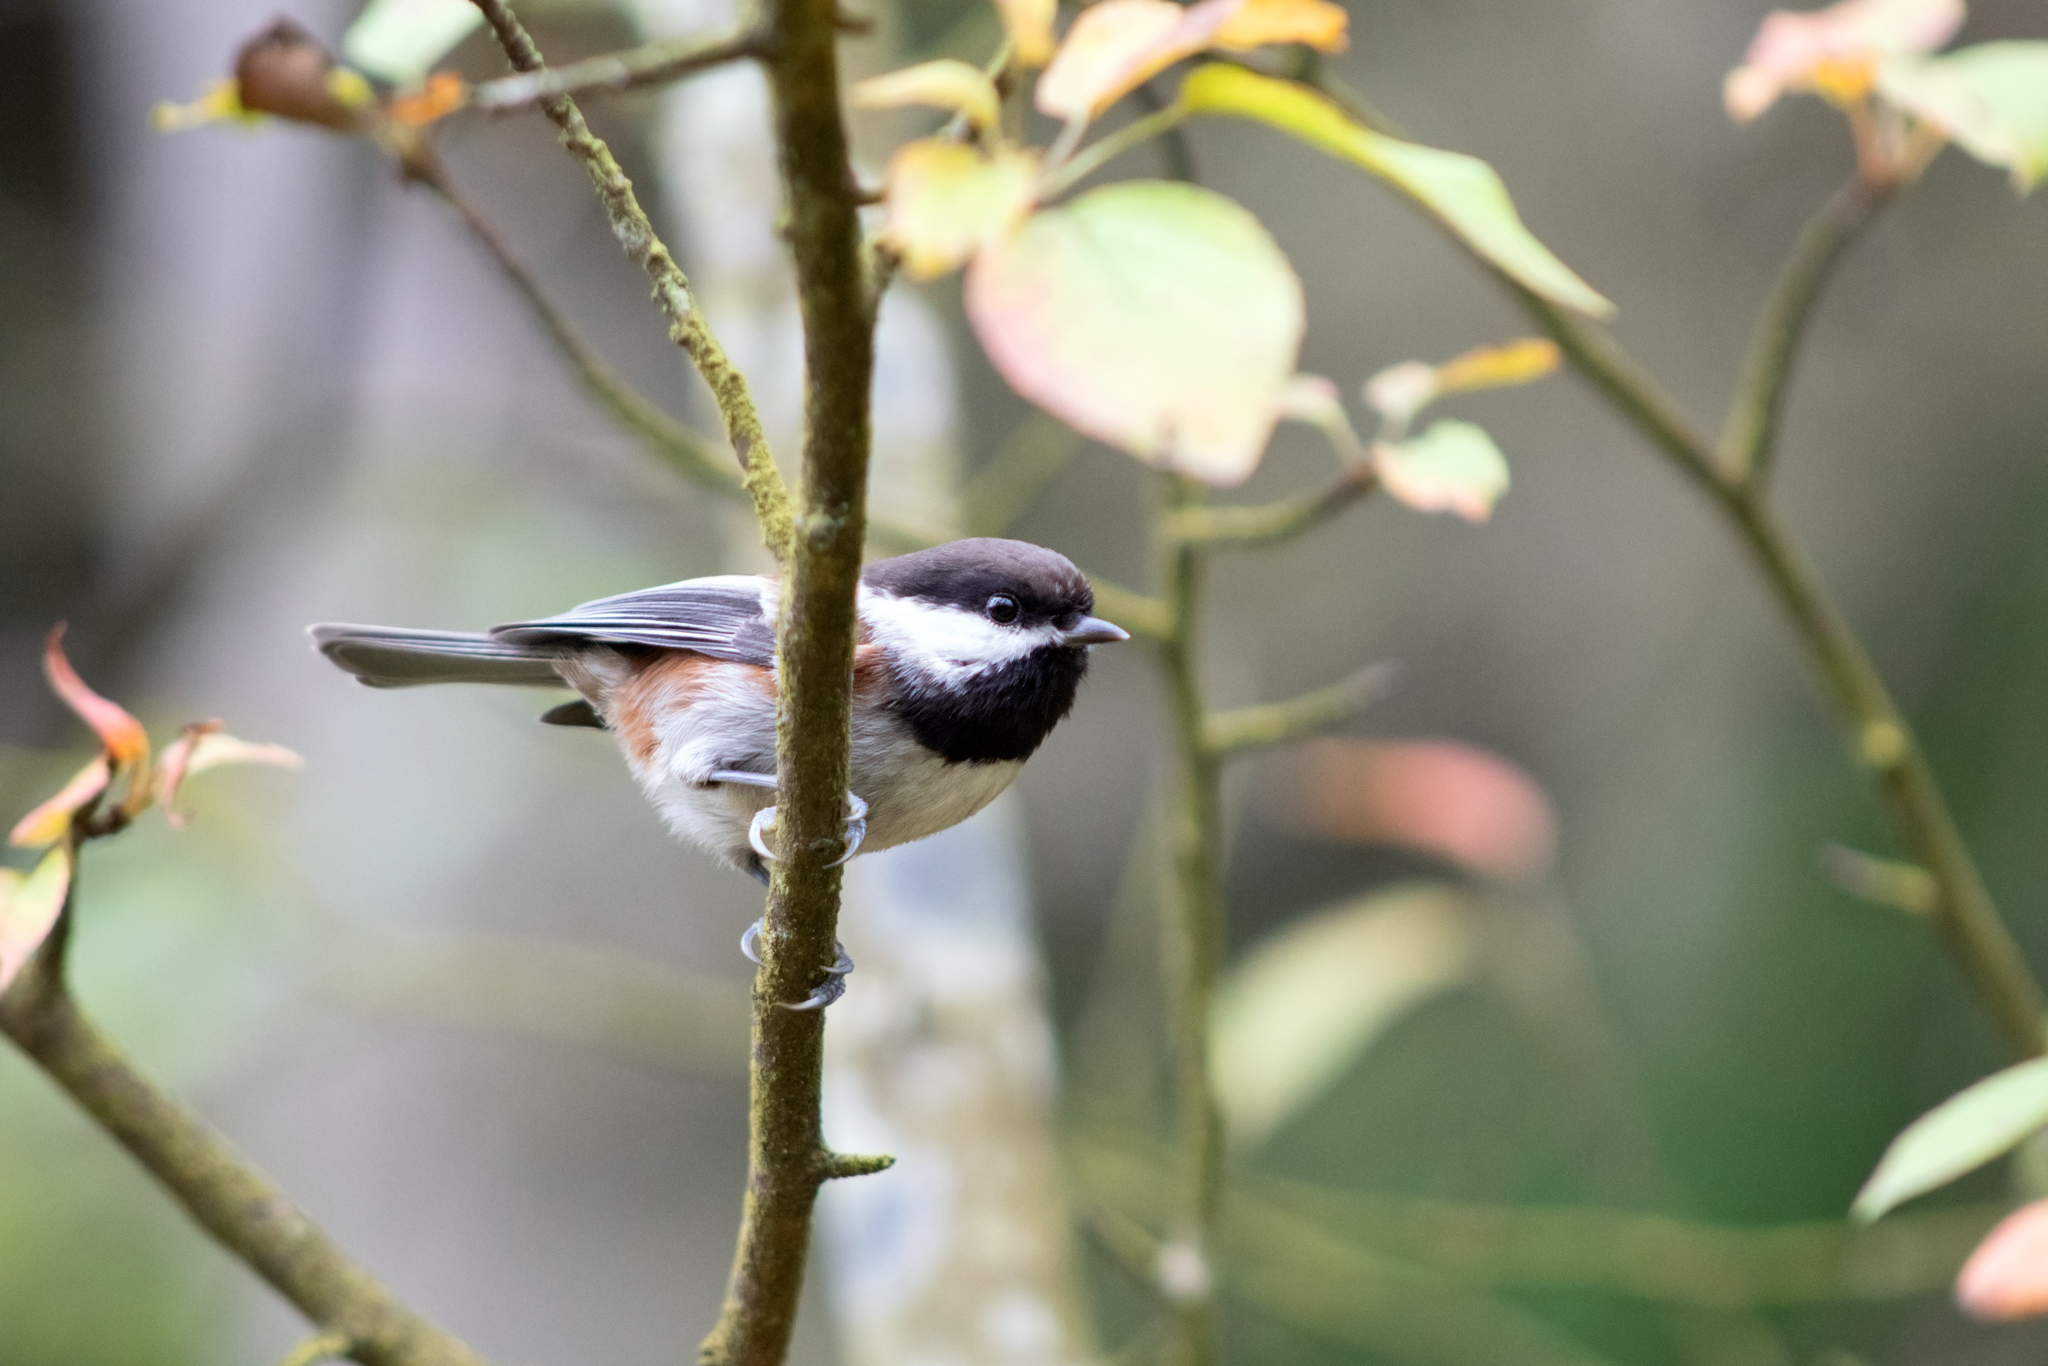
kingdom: Animalia
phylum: Chordata
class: Aves
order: Passeriformes
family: Paridae
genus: Poecile
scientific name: Poecile rufescens
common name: Chestnut-backed chickadee
